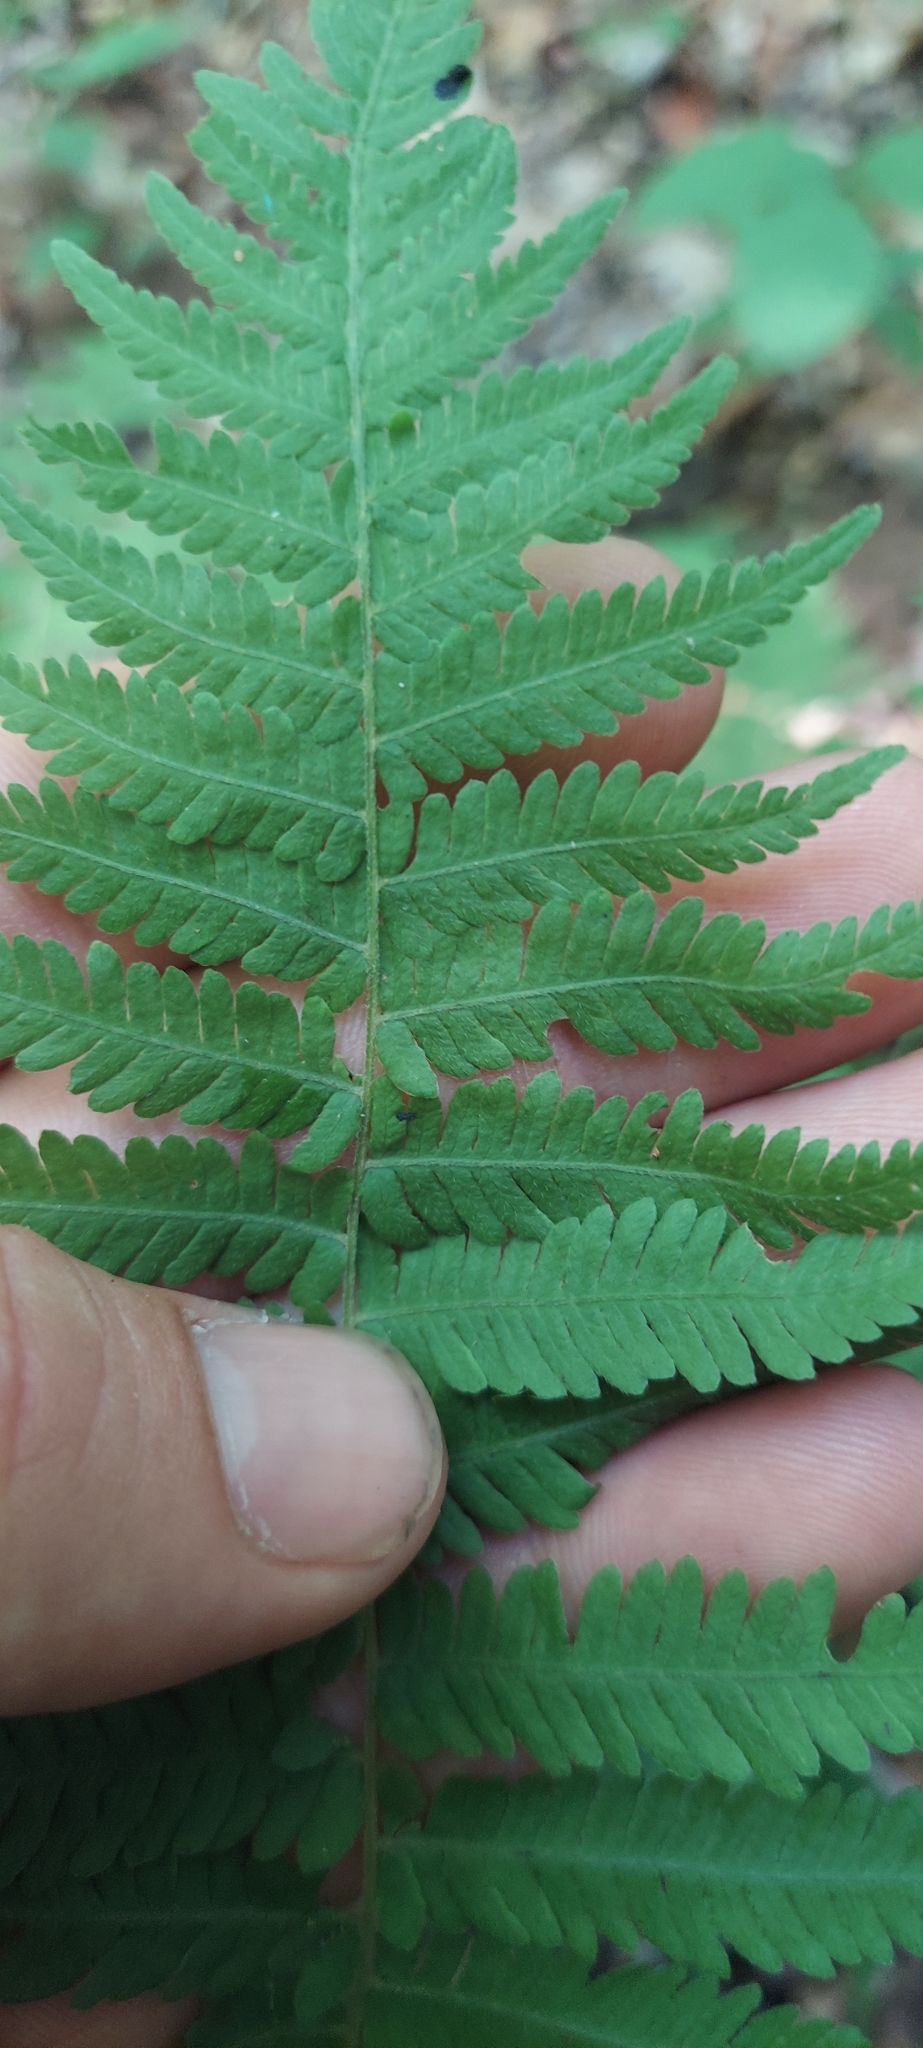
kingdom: Plantae
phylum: Tracheophyta
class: Polypodiopsida
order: Polypodiales
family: Thelypteridaceae
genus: Amauropelta
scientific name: Amauropelta noveboracensis
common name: New york fern
